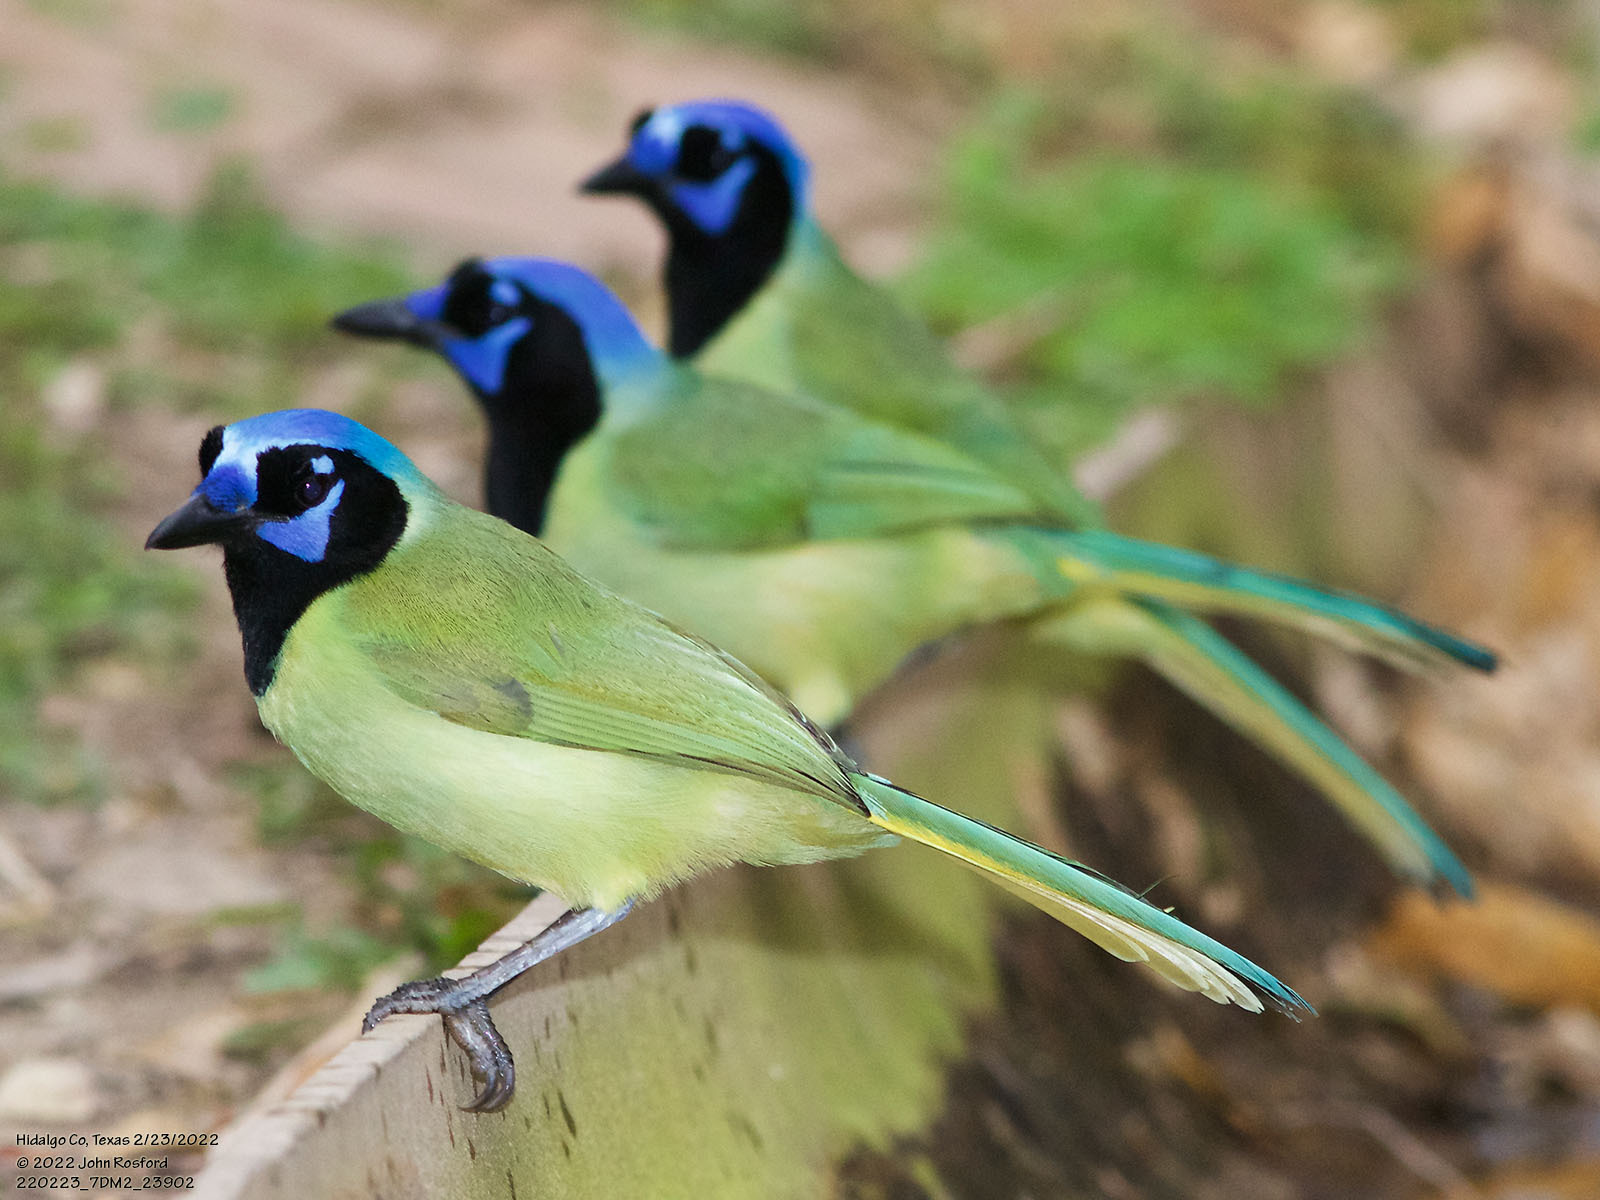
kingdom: Animalia
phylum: Chordata
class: Aves
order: Passeriformes
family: Corvidae
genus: Cyanocorax
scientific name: Cyanocorax yncas
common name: Green jay
